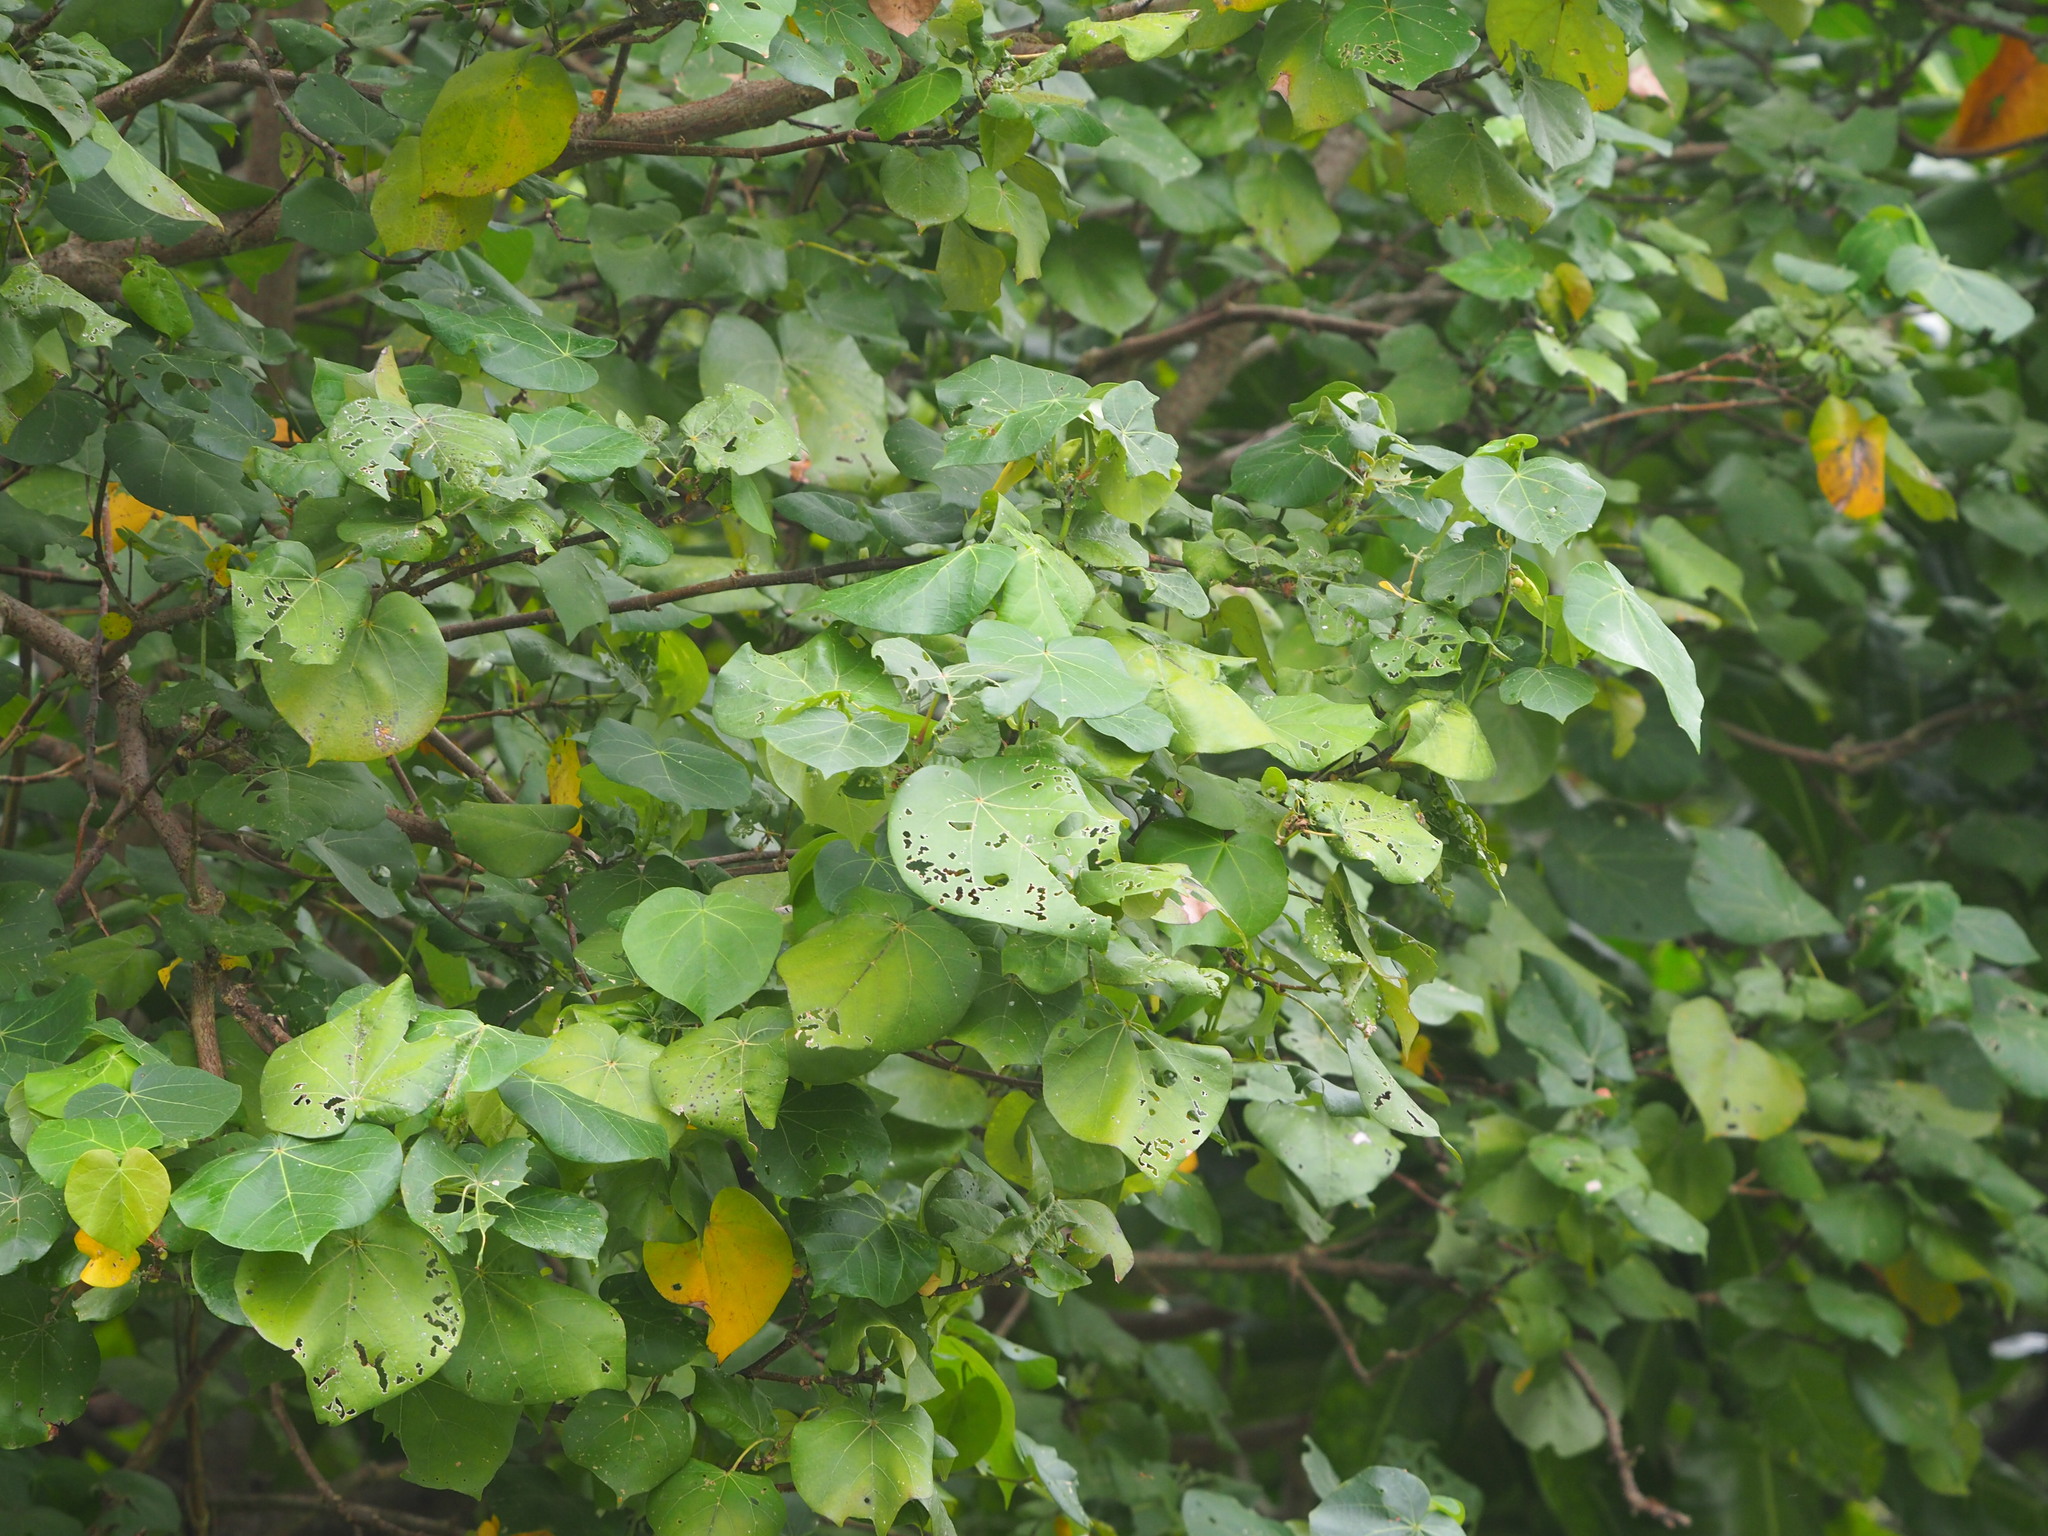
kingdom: Plantae
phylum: Tracheophyta
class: Magnoliopsida
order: Malvales
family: Malvaceae
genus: Talipariti
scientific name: Talipariti tiliaceum
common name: Sea hibiscus
